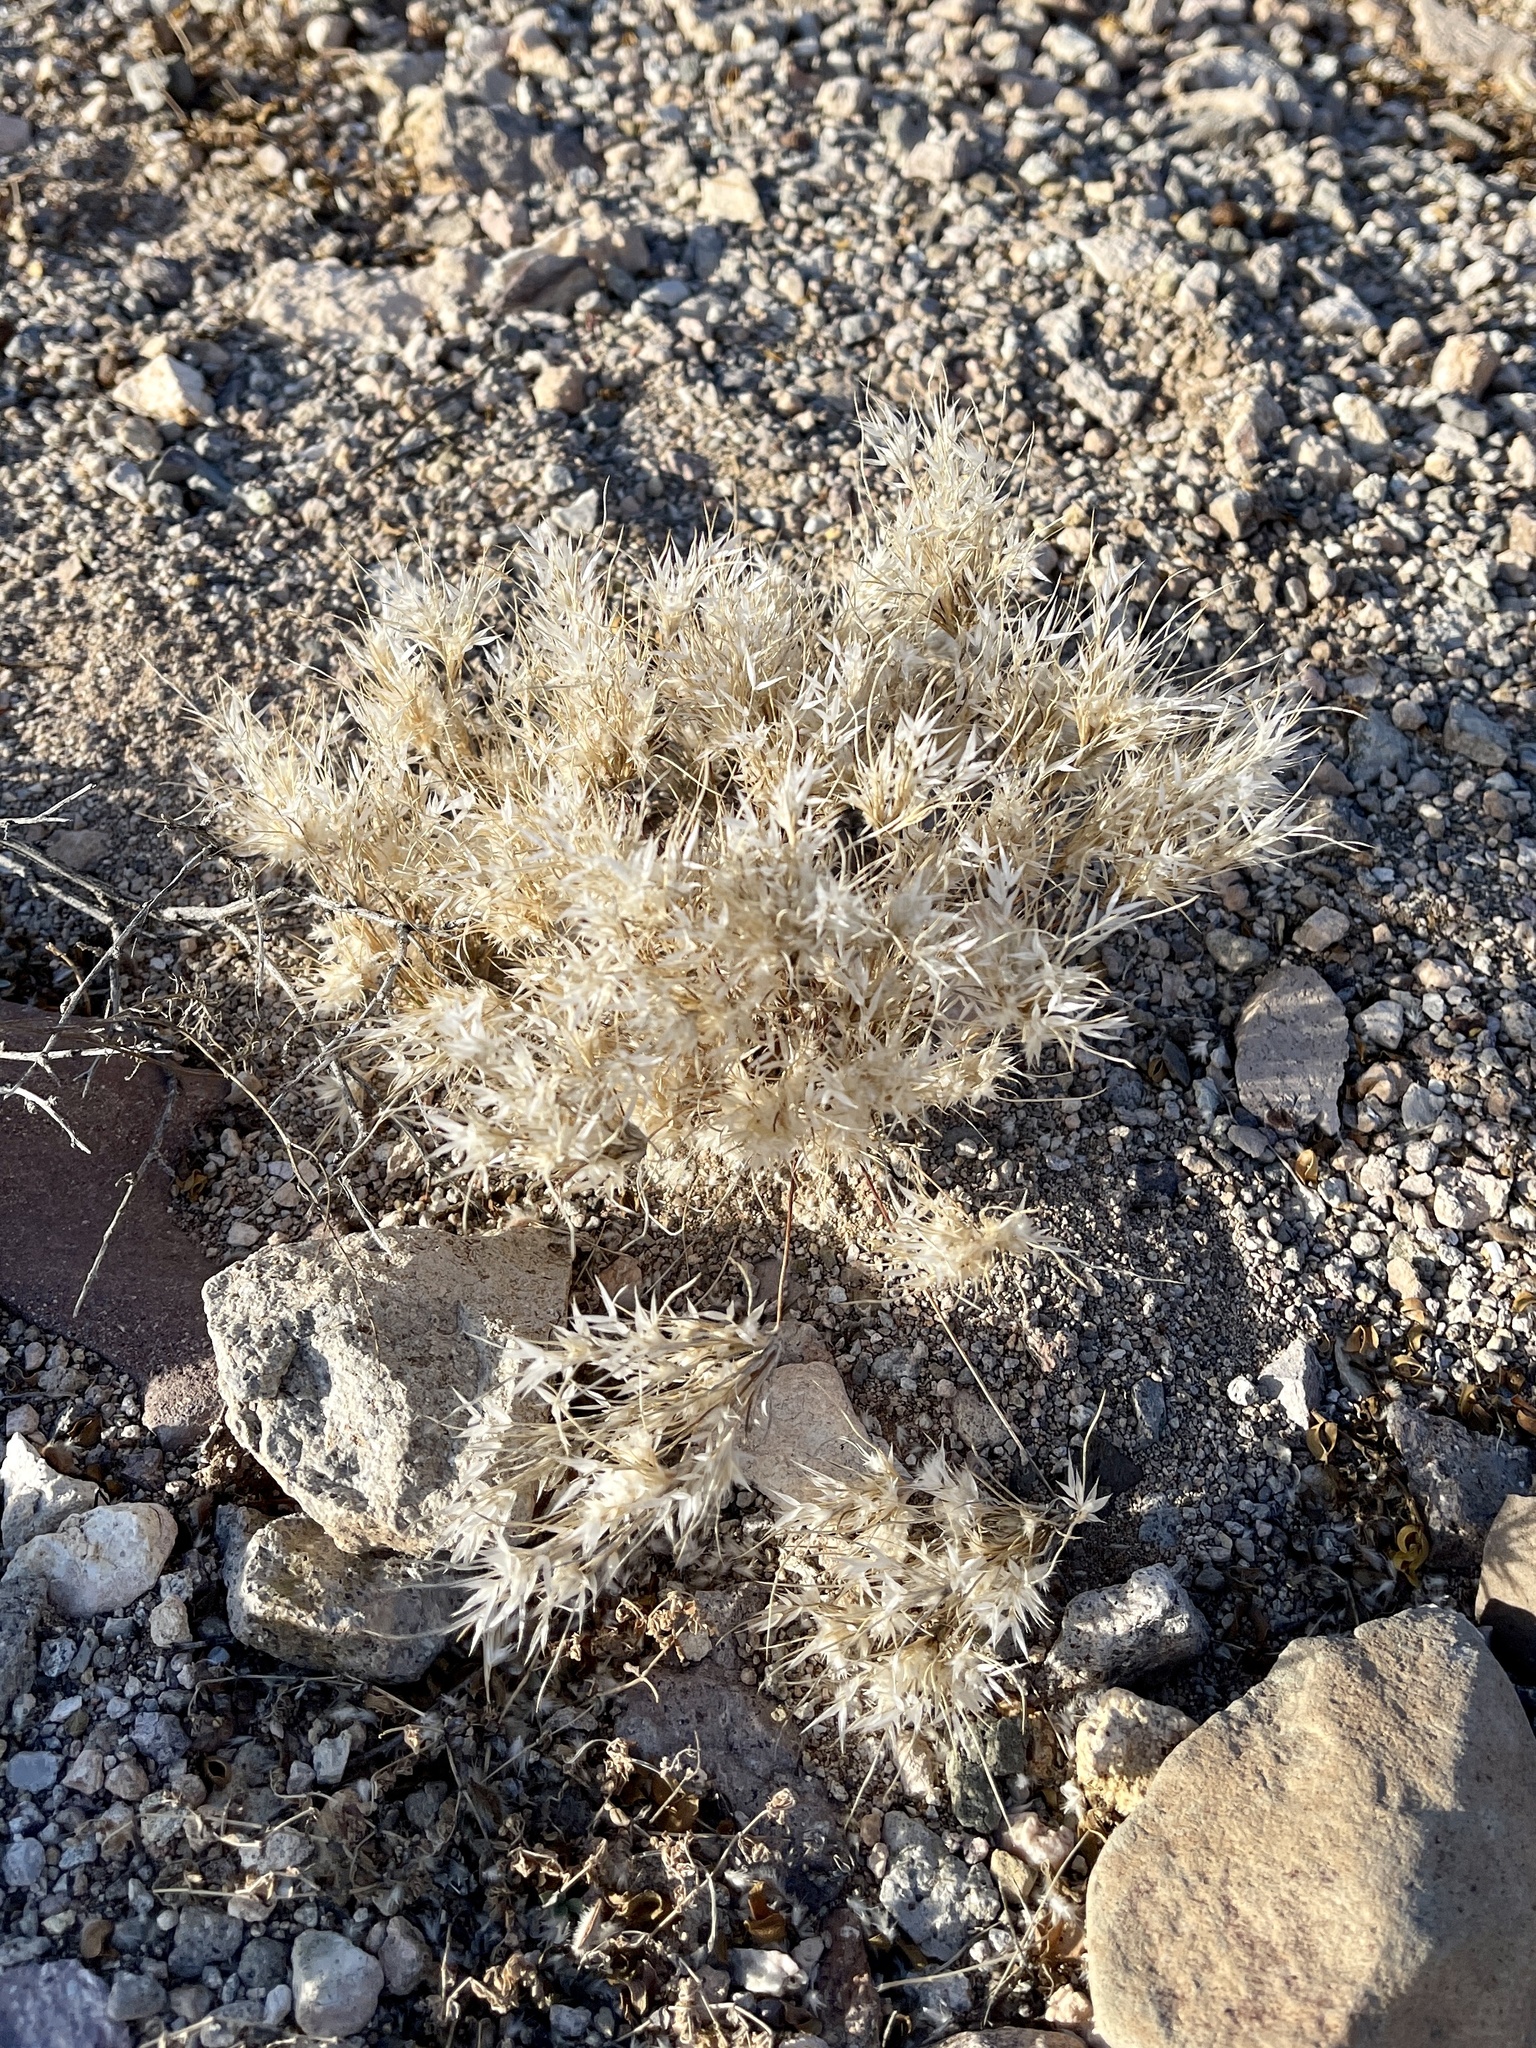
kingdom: Plantae
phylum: Tracheophyta
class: Liliopsida
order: Poales
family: Poaceae
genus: Dasyochloa
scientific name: Dasyochloa pulchella
